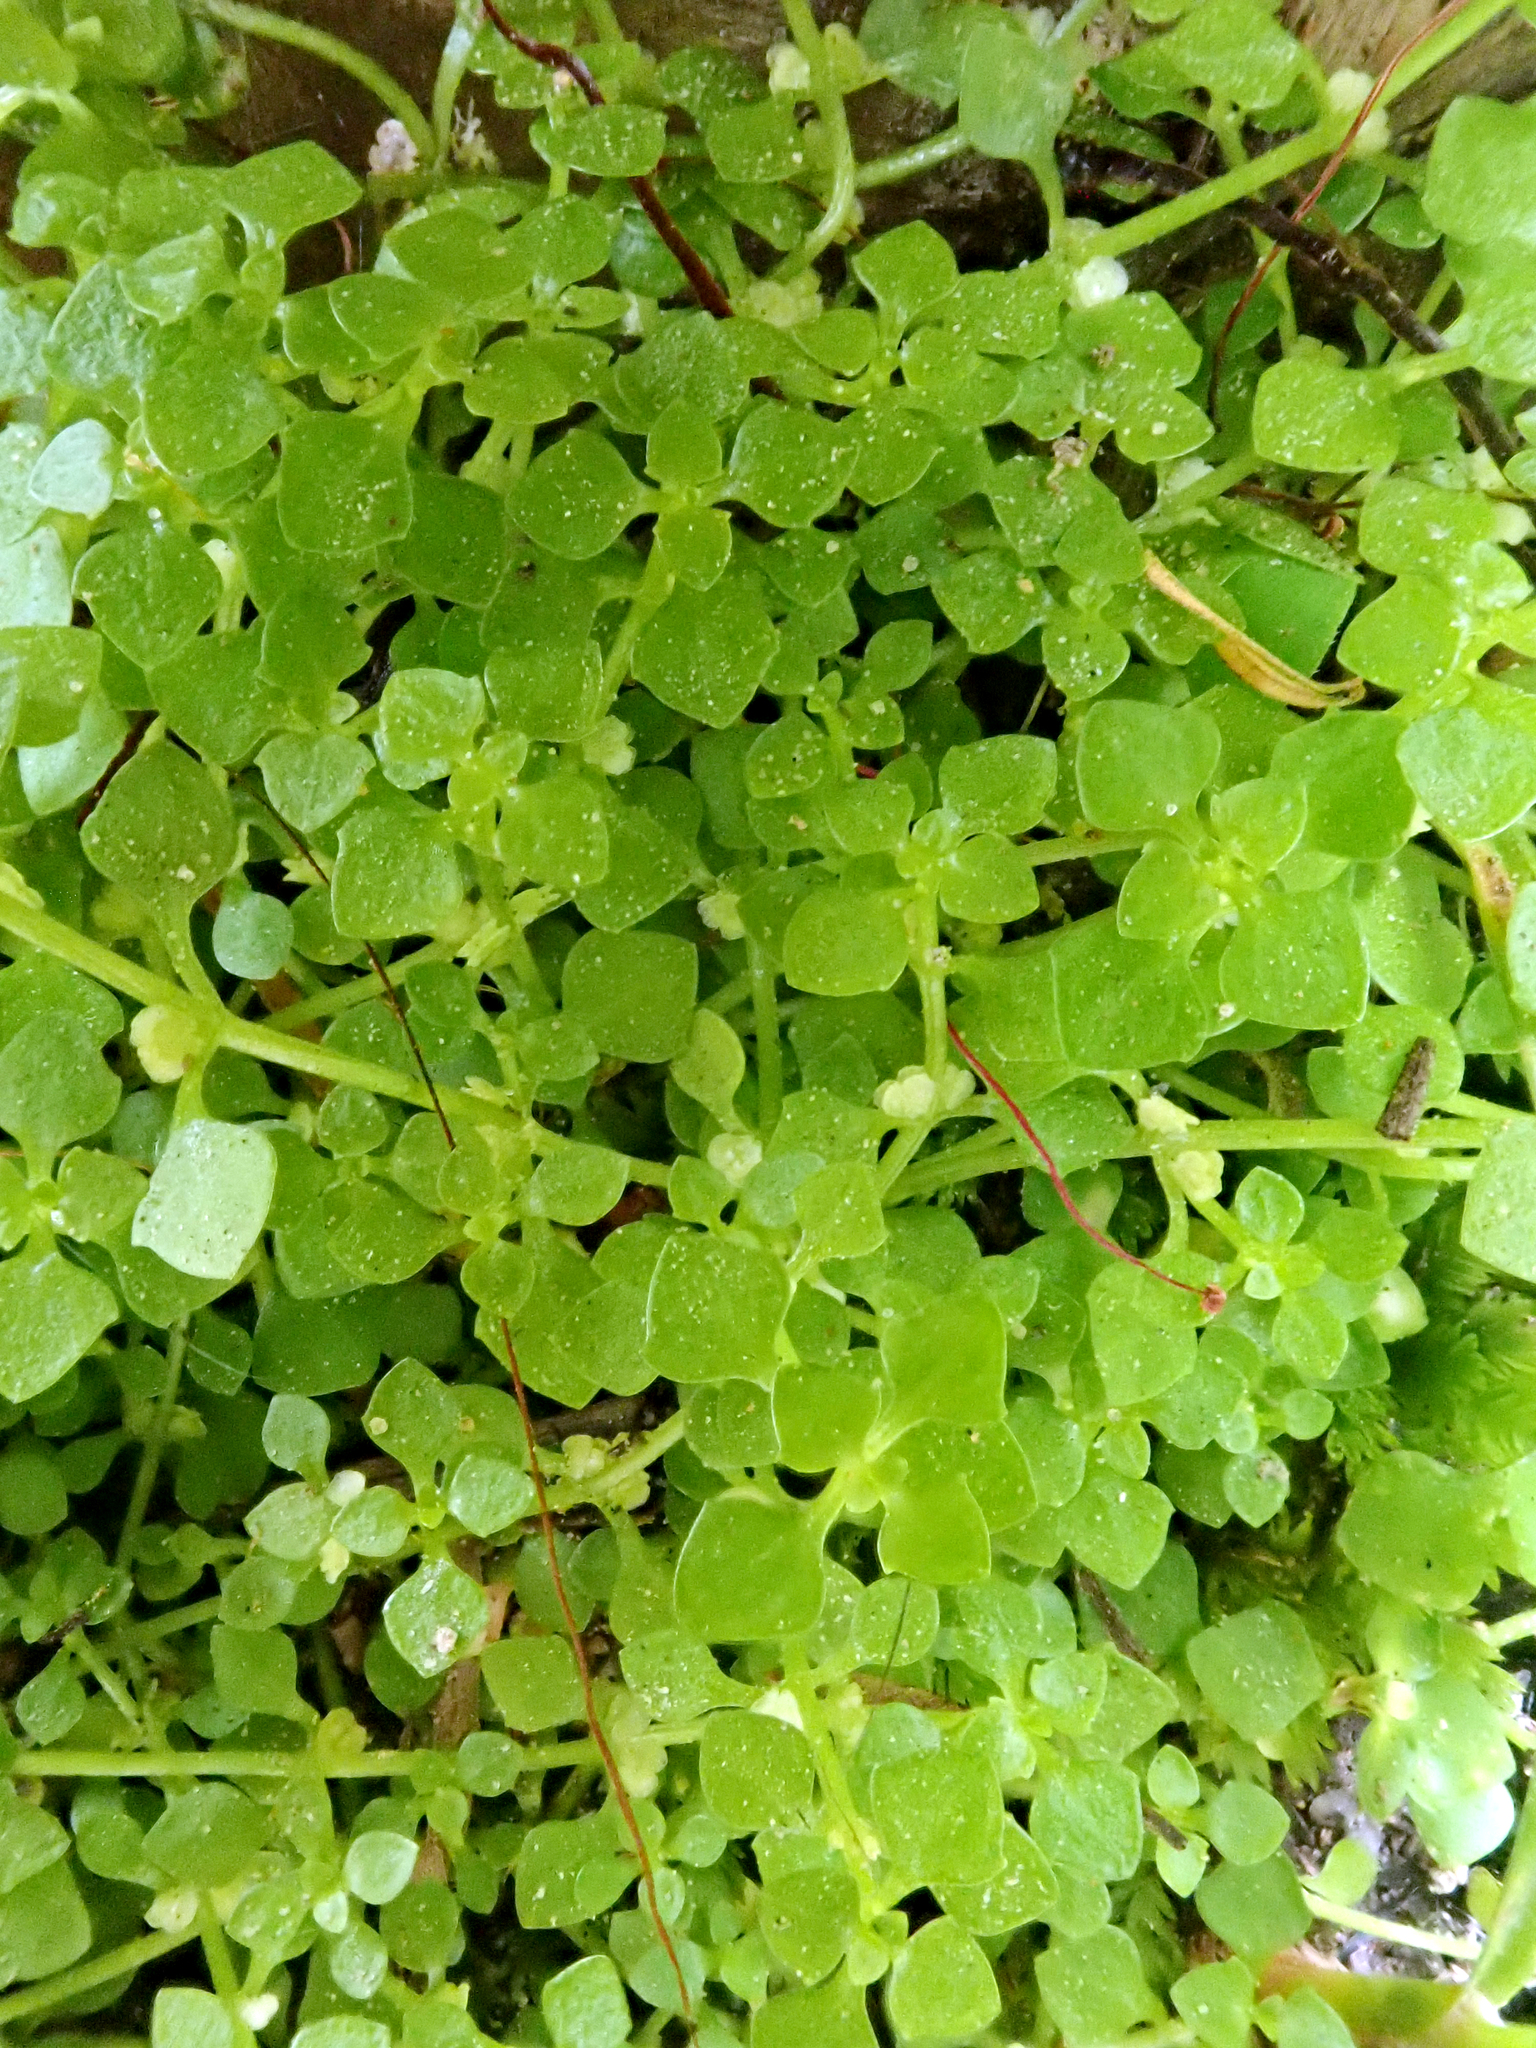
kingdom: Plantae
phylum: Tracheophyta
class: Magnoliopsida
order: Lamiales
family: Plantaginaceae
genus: Callitriche
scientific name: Callitriche muelleri
